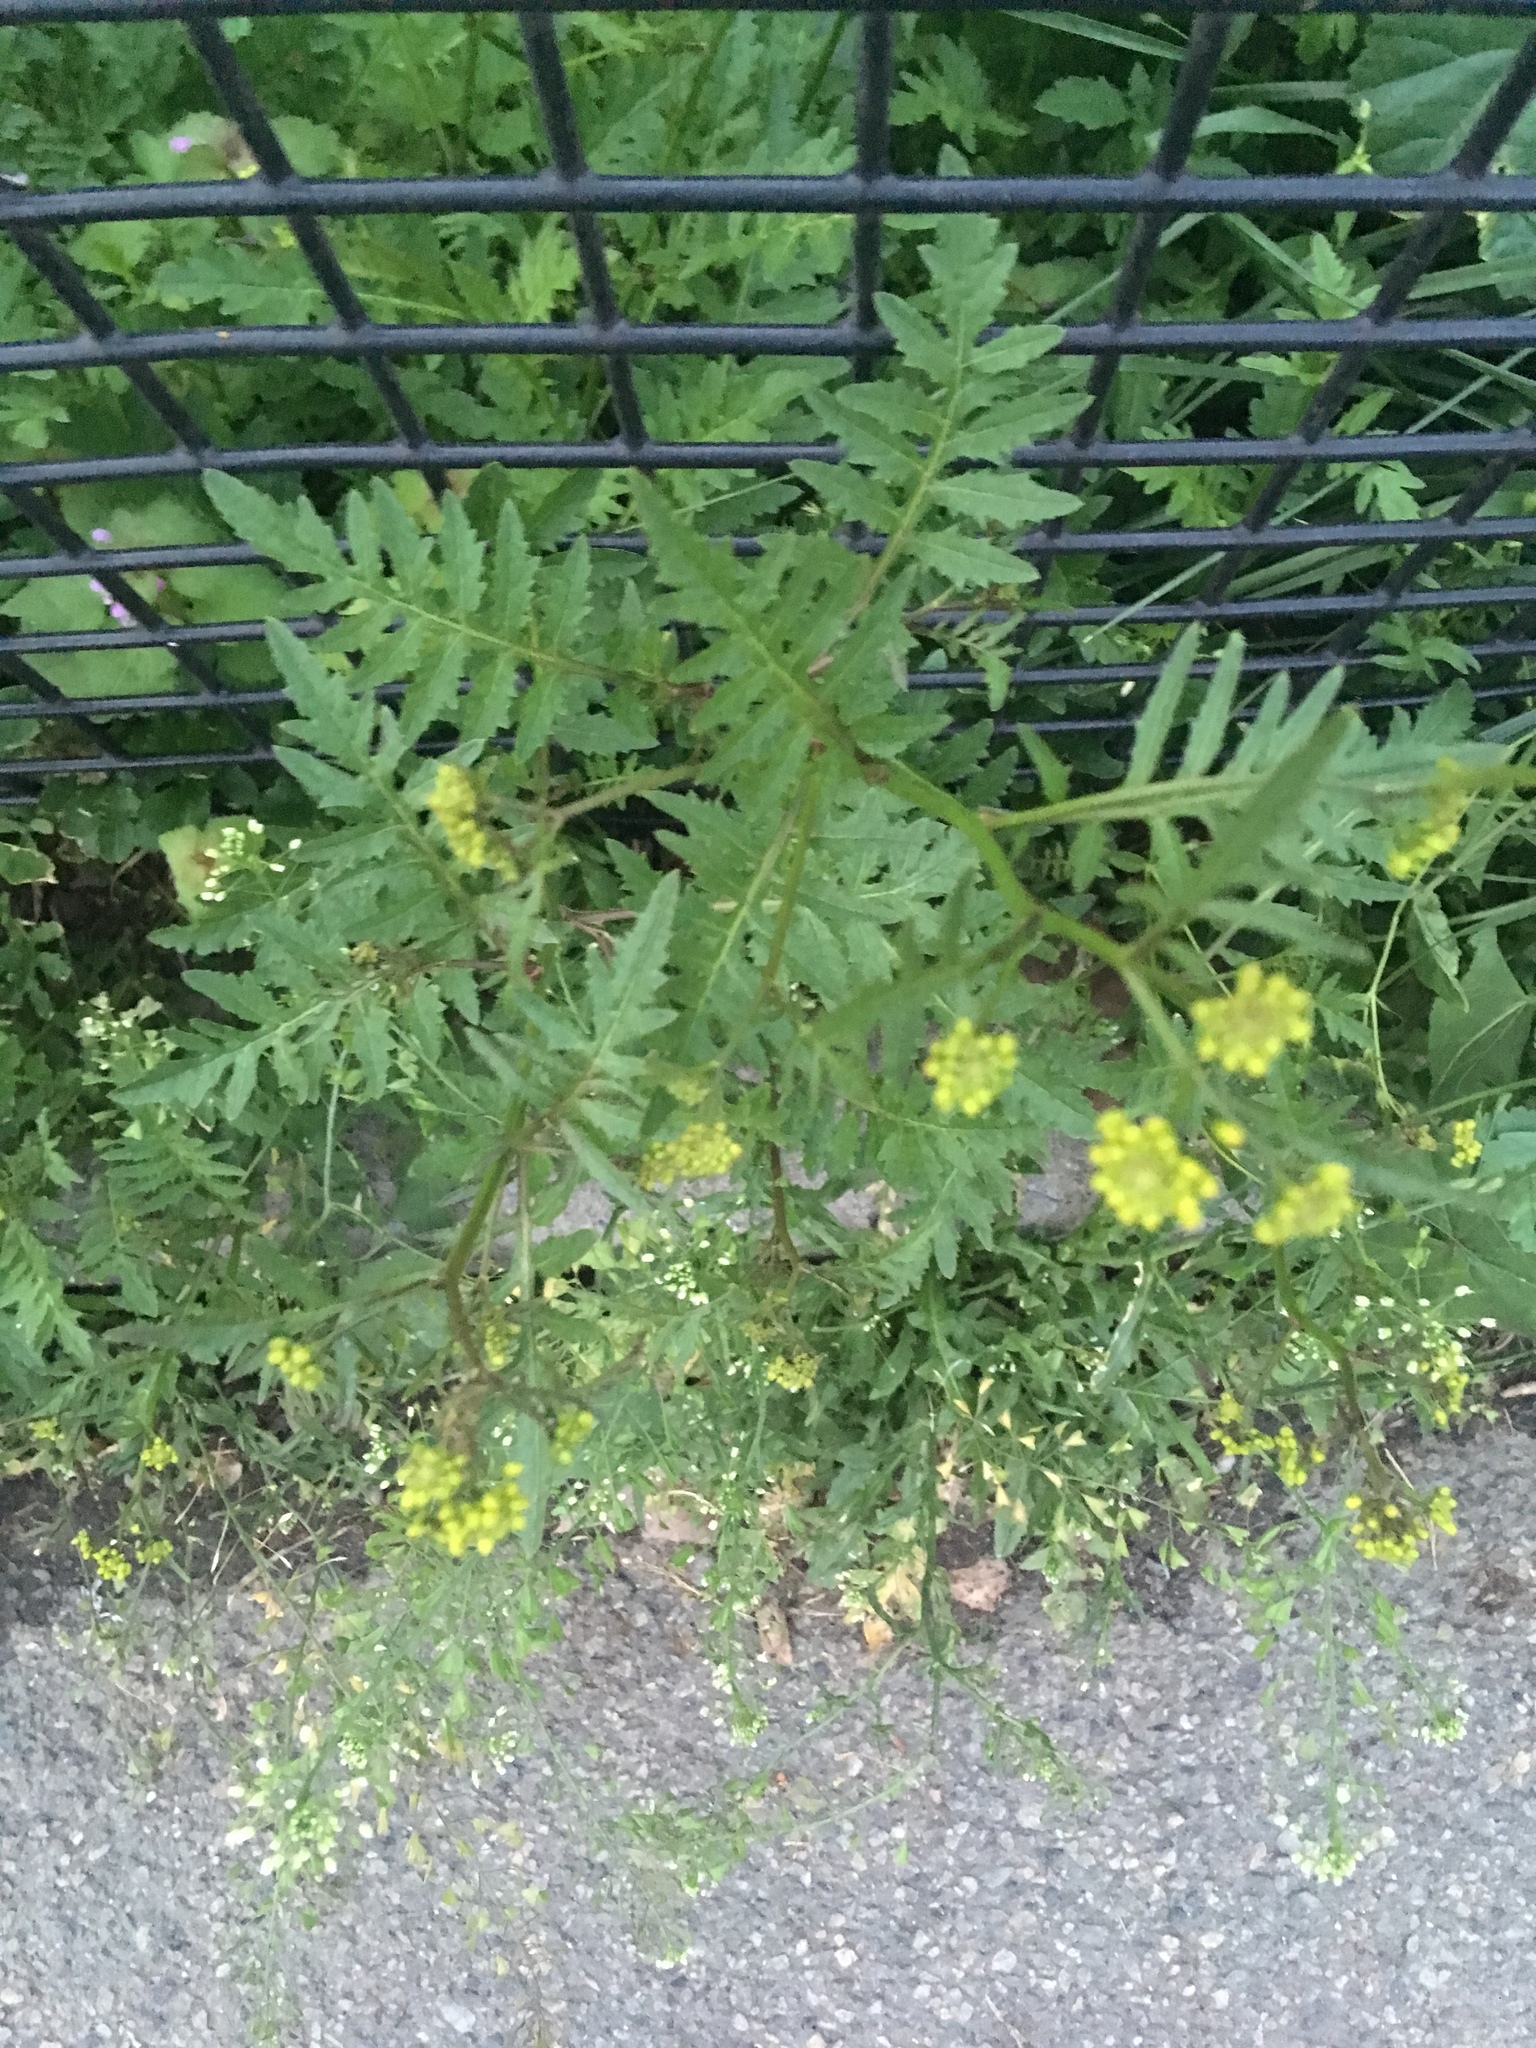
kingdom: Plantae
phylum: Tracheophyta
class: Magnoliopsida
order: Brassicales
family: Brassicaceae
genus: Rorippa
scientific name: Rorippa sylvestris
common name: Creeping yellowcress
